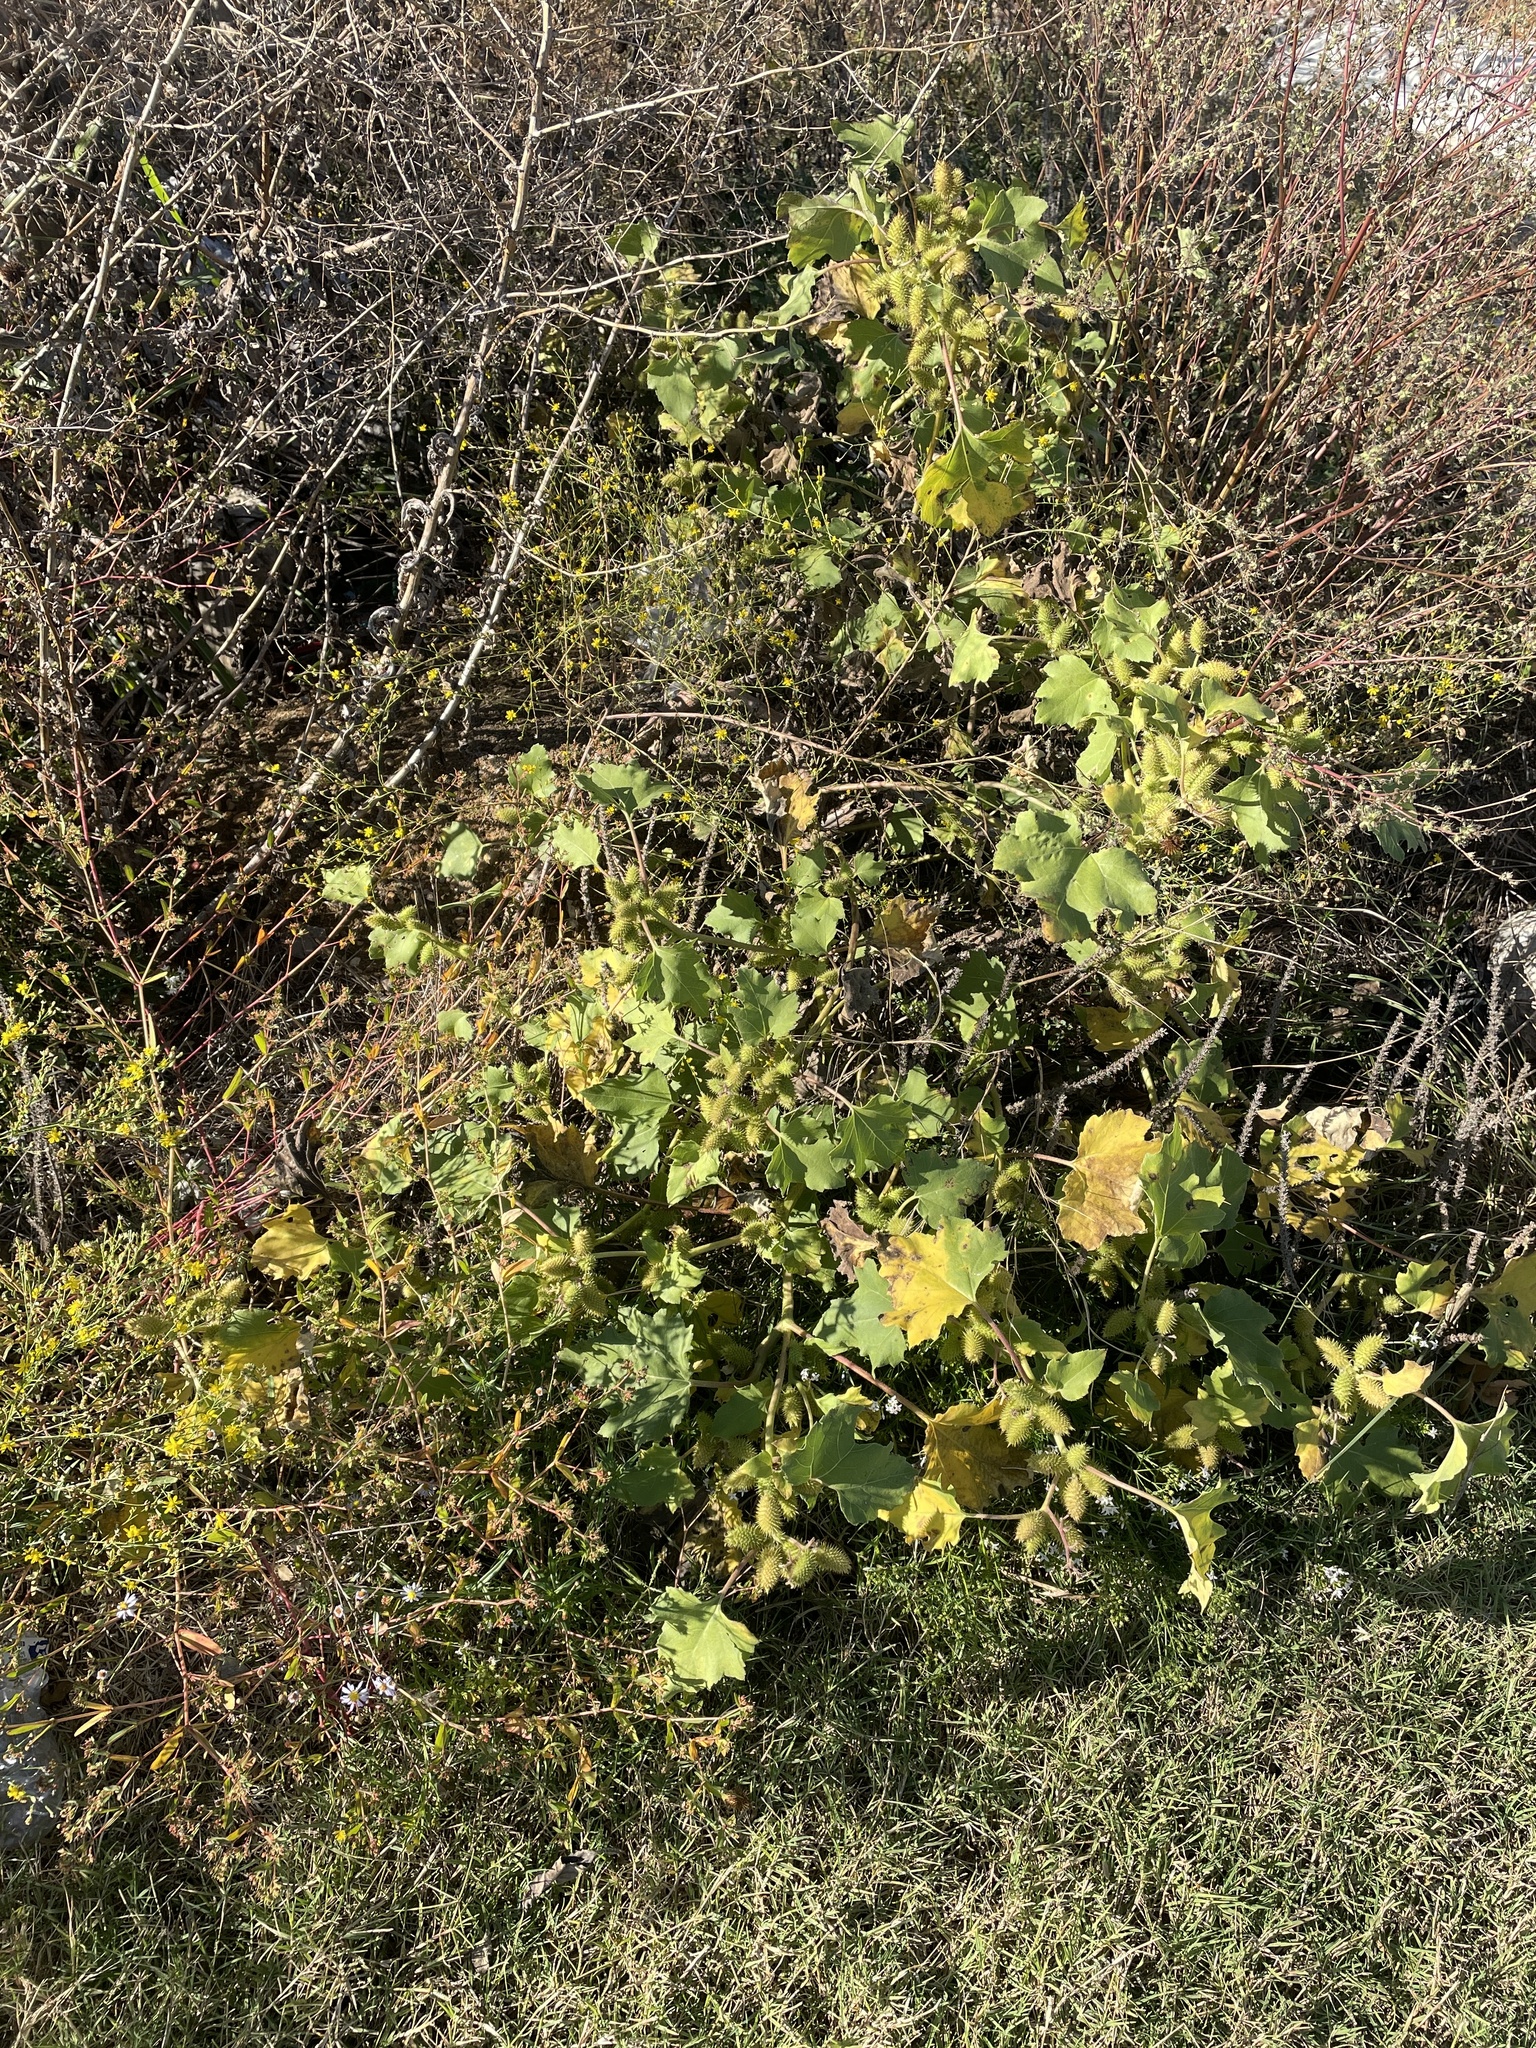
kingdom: Plantae
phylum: Tracheophyta
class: Magnoliopsida
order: Asterales
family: Asteraceae
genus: Xanthium
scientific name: Xanthium strumarium
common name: Rough cocklebur
